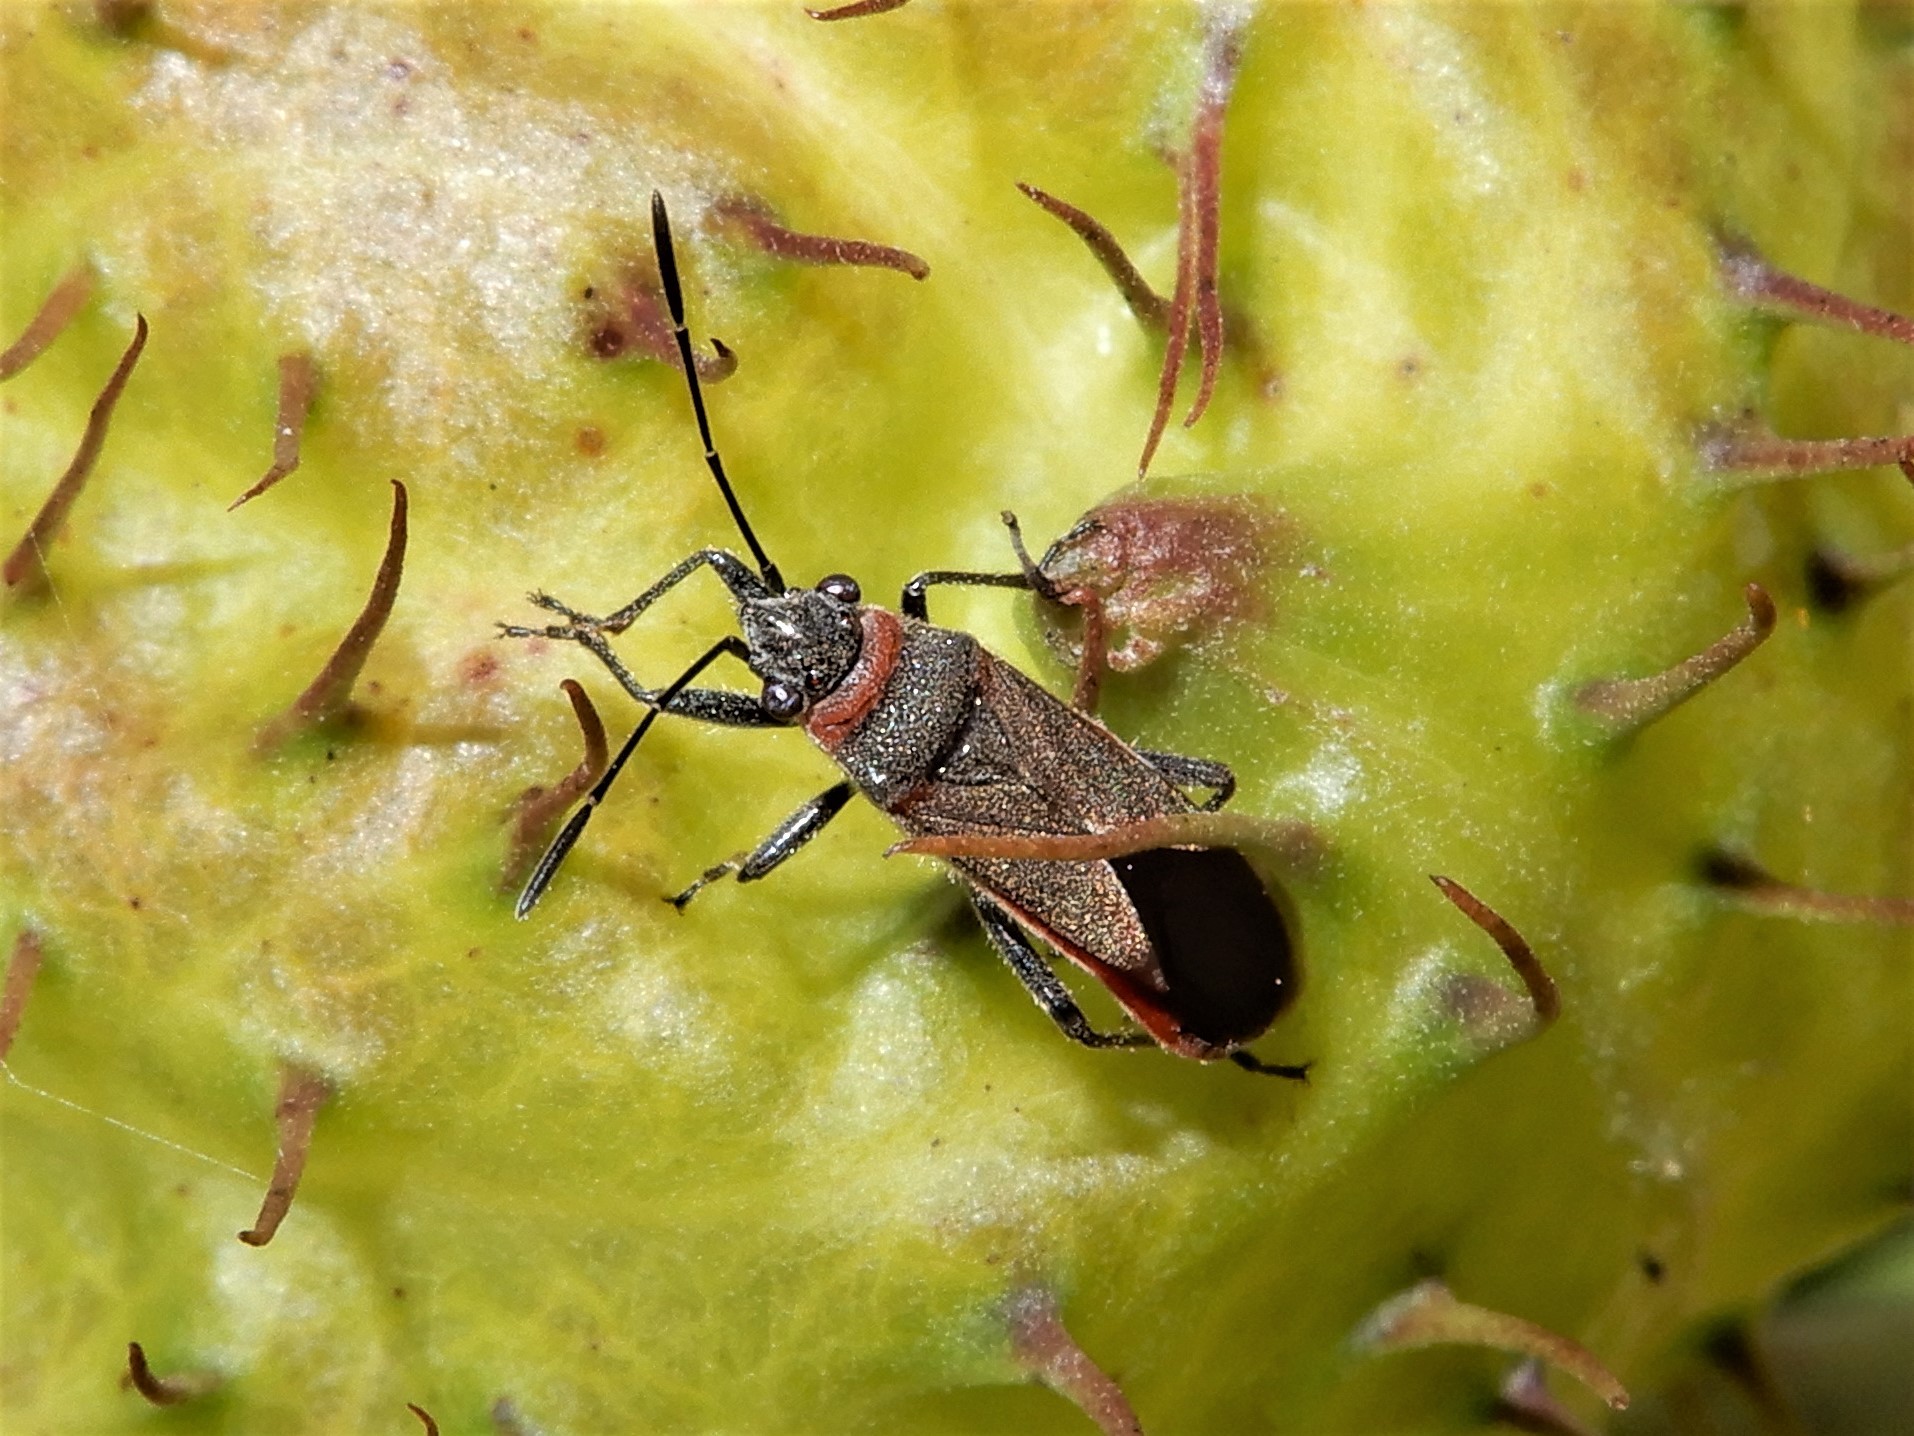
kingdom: Animalia
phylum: Arthropoda
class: Insecta
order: Hemiptera
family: Lygaeidae
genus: Arocatus
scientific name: Arocatus rusticus
